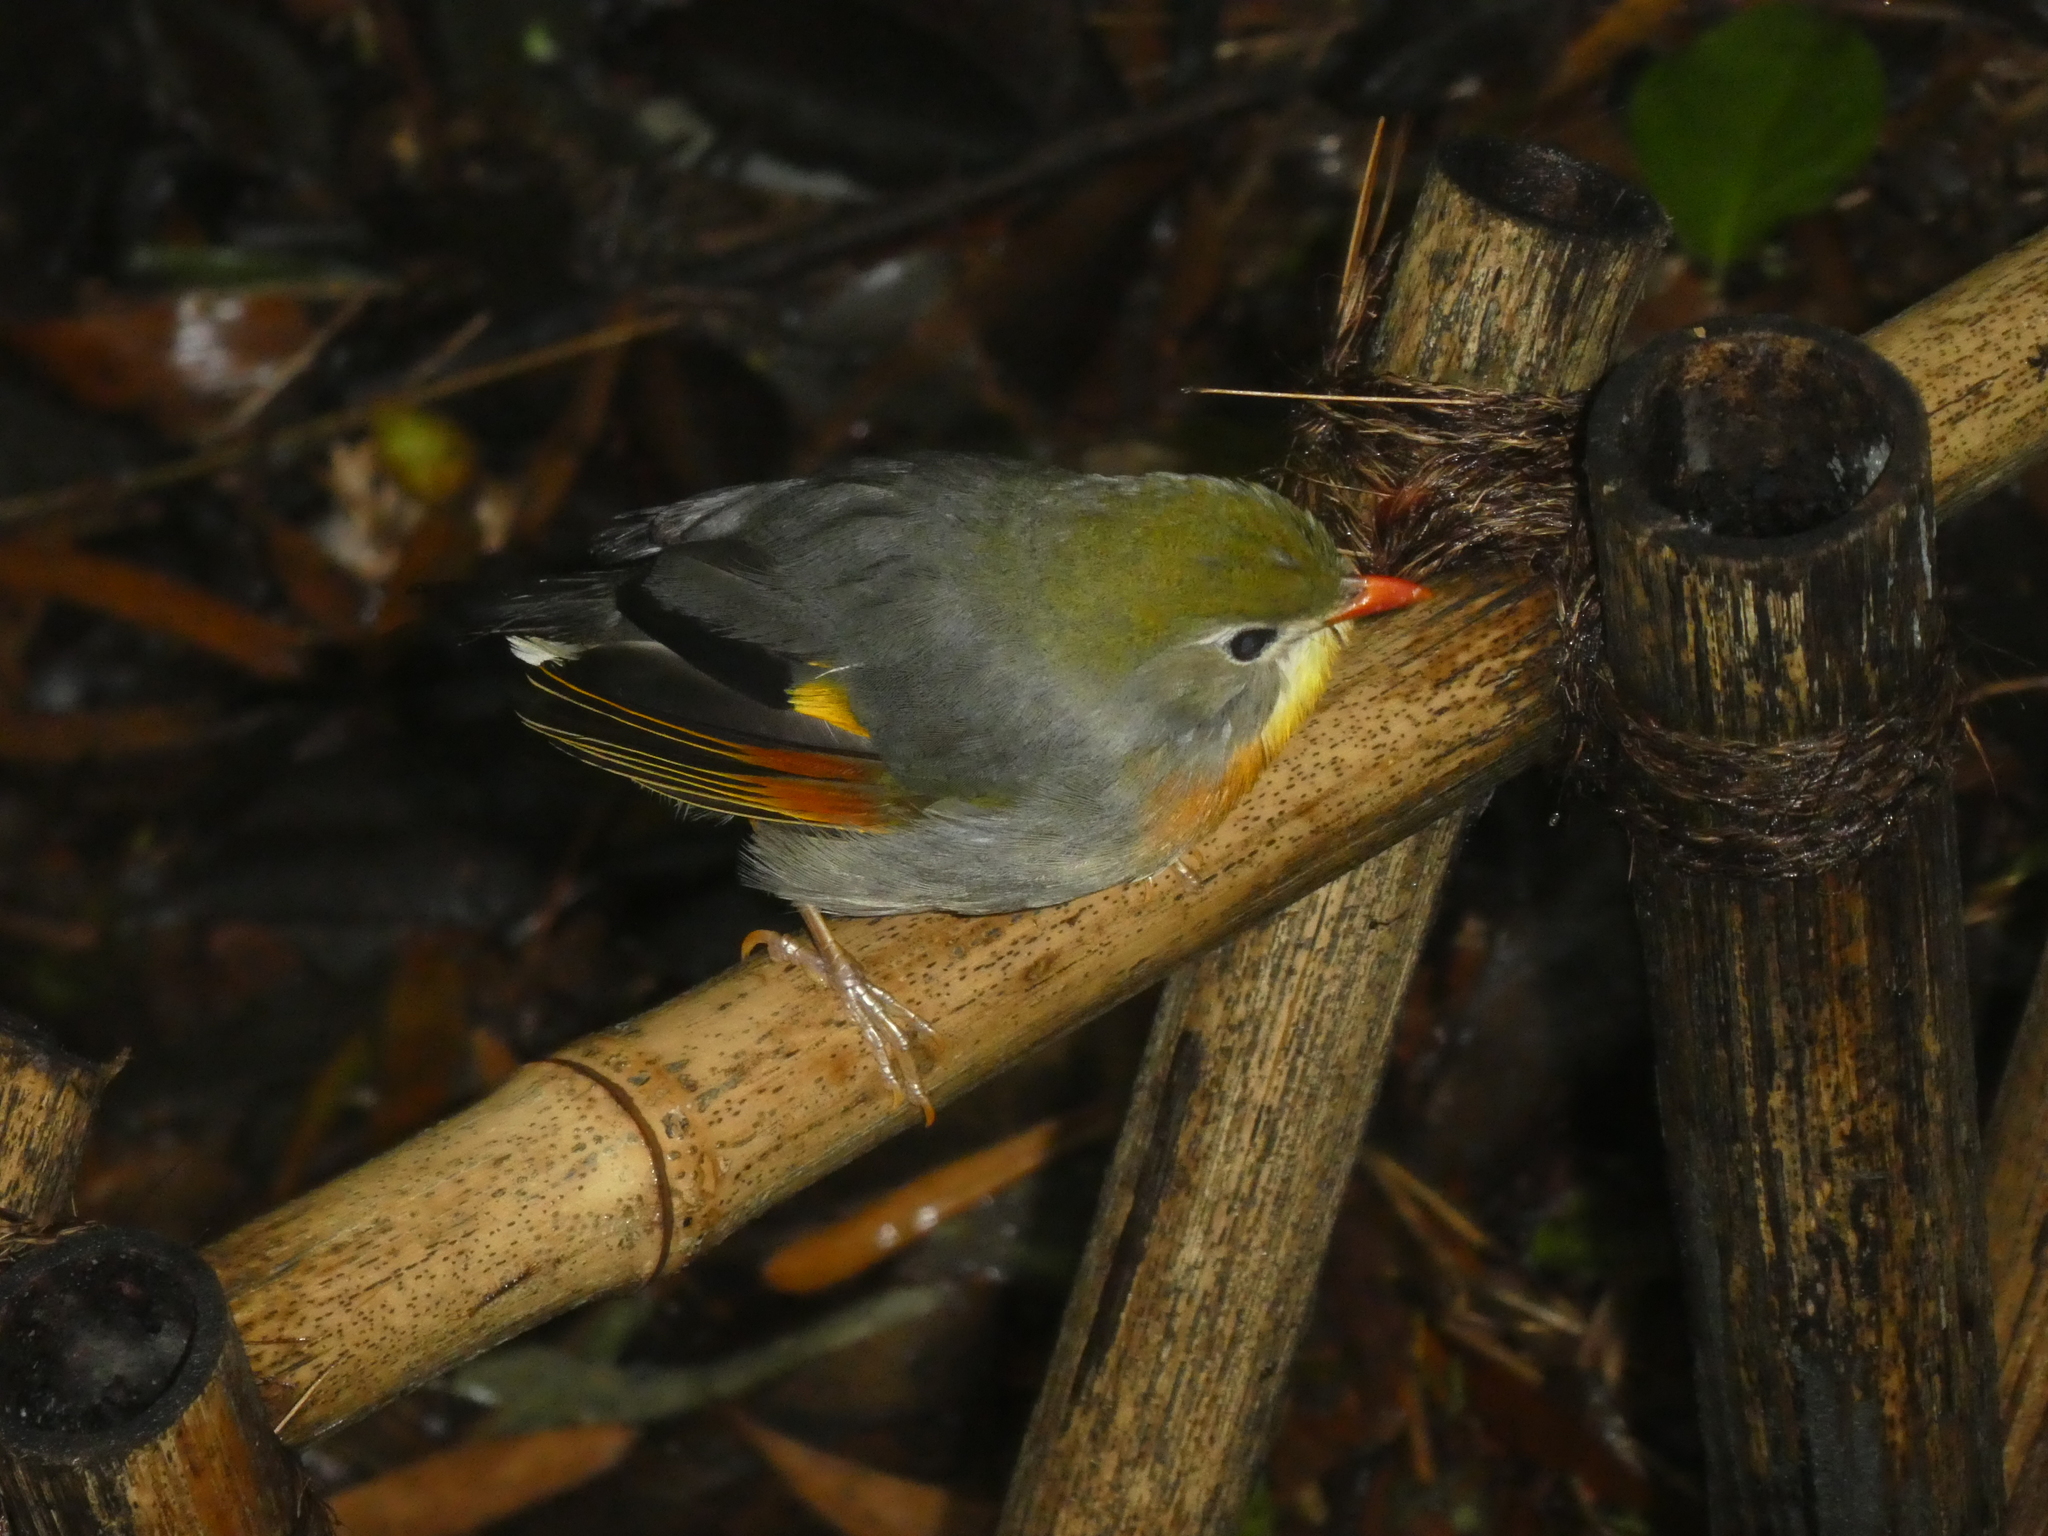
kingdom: Animalia
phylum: Chordata
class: Aves
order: Passeriformes
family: Leiothrichidae
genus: Leiothrix
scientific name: Leiothrix lutea
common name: Red-billed leiothrix
